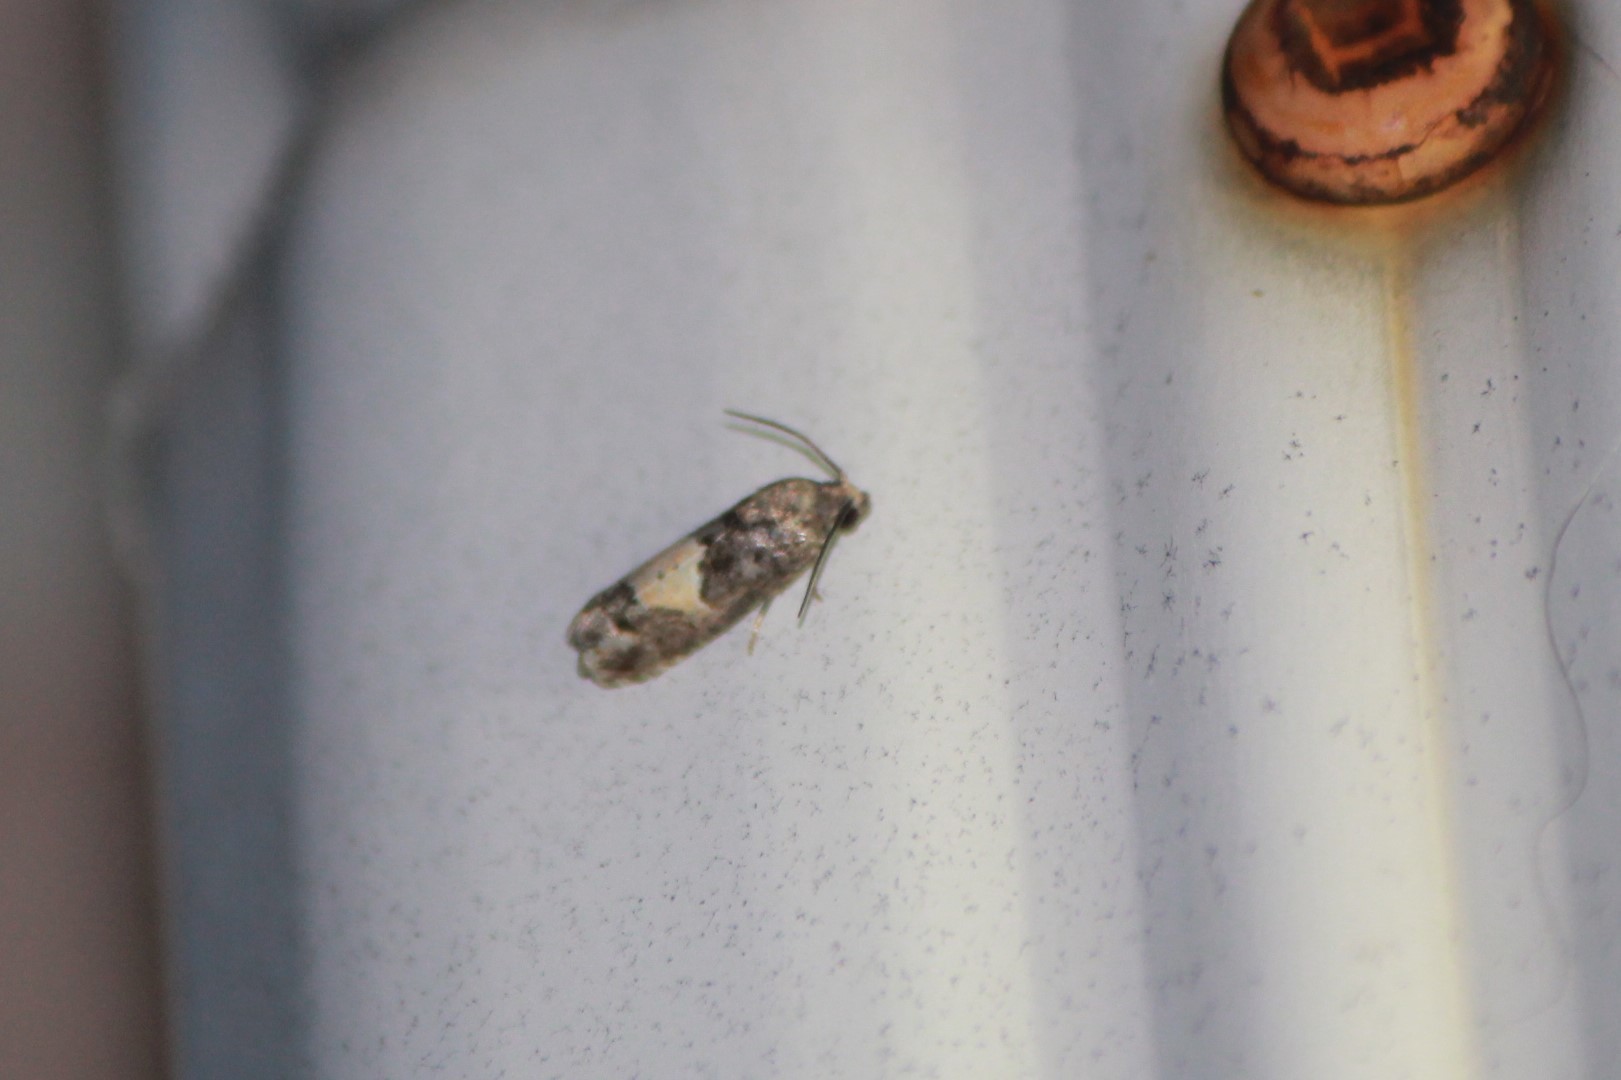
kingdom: Animalia
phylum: Arthropoda
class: Insecta
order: Lepidoptera
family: Tortricidae
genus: Epiblema
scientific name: Epiblema glenni
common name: Glenn's epiblema
